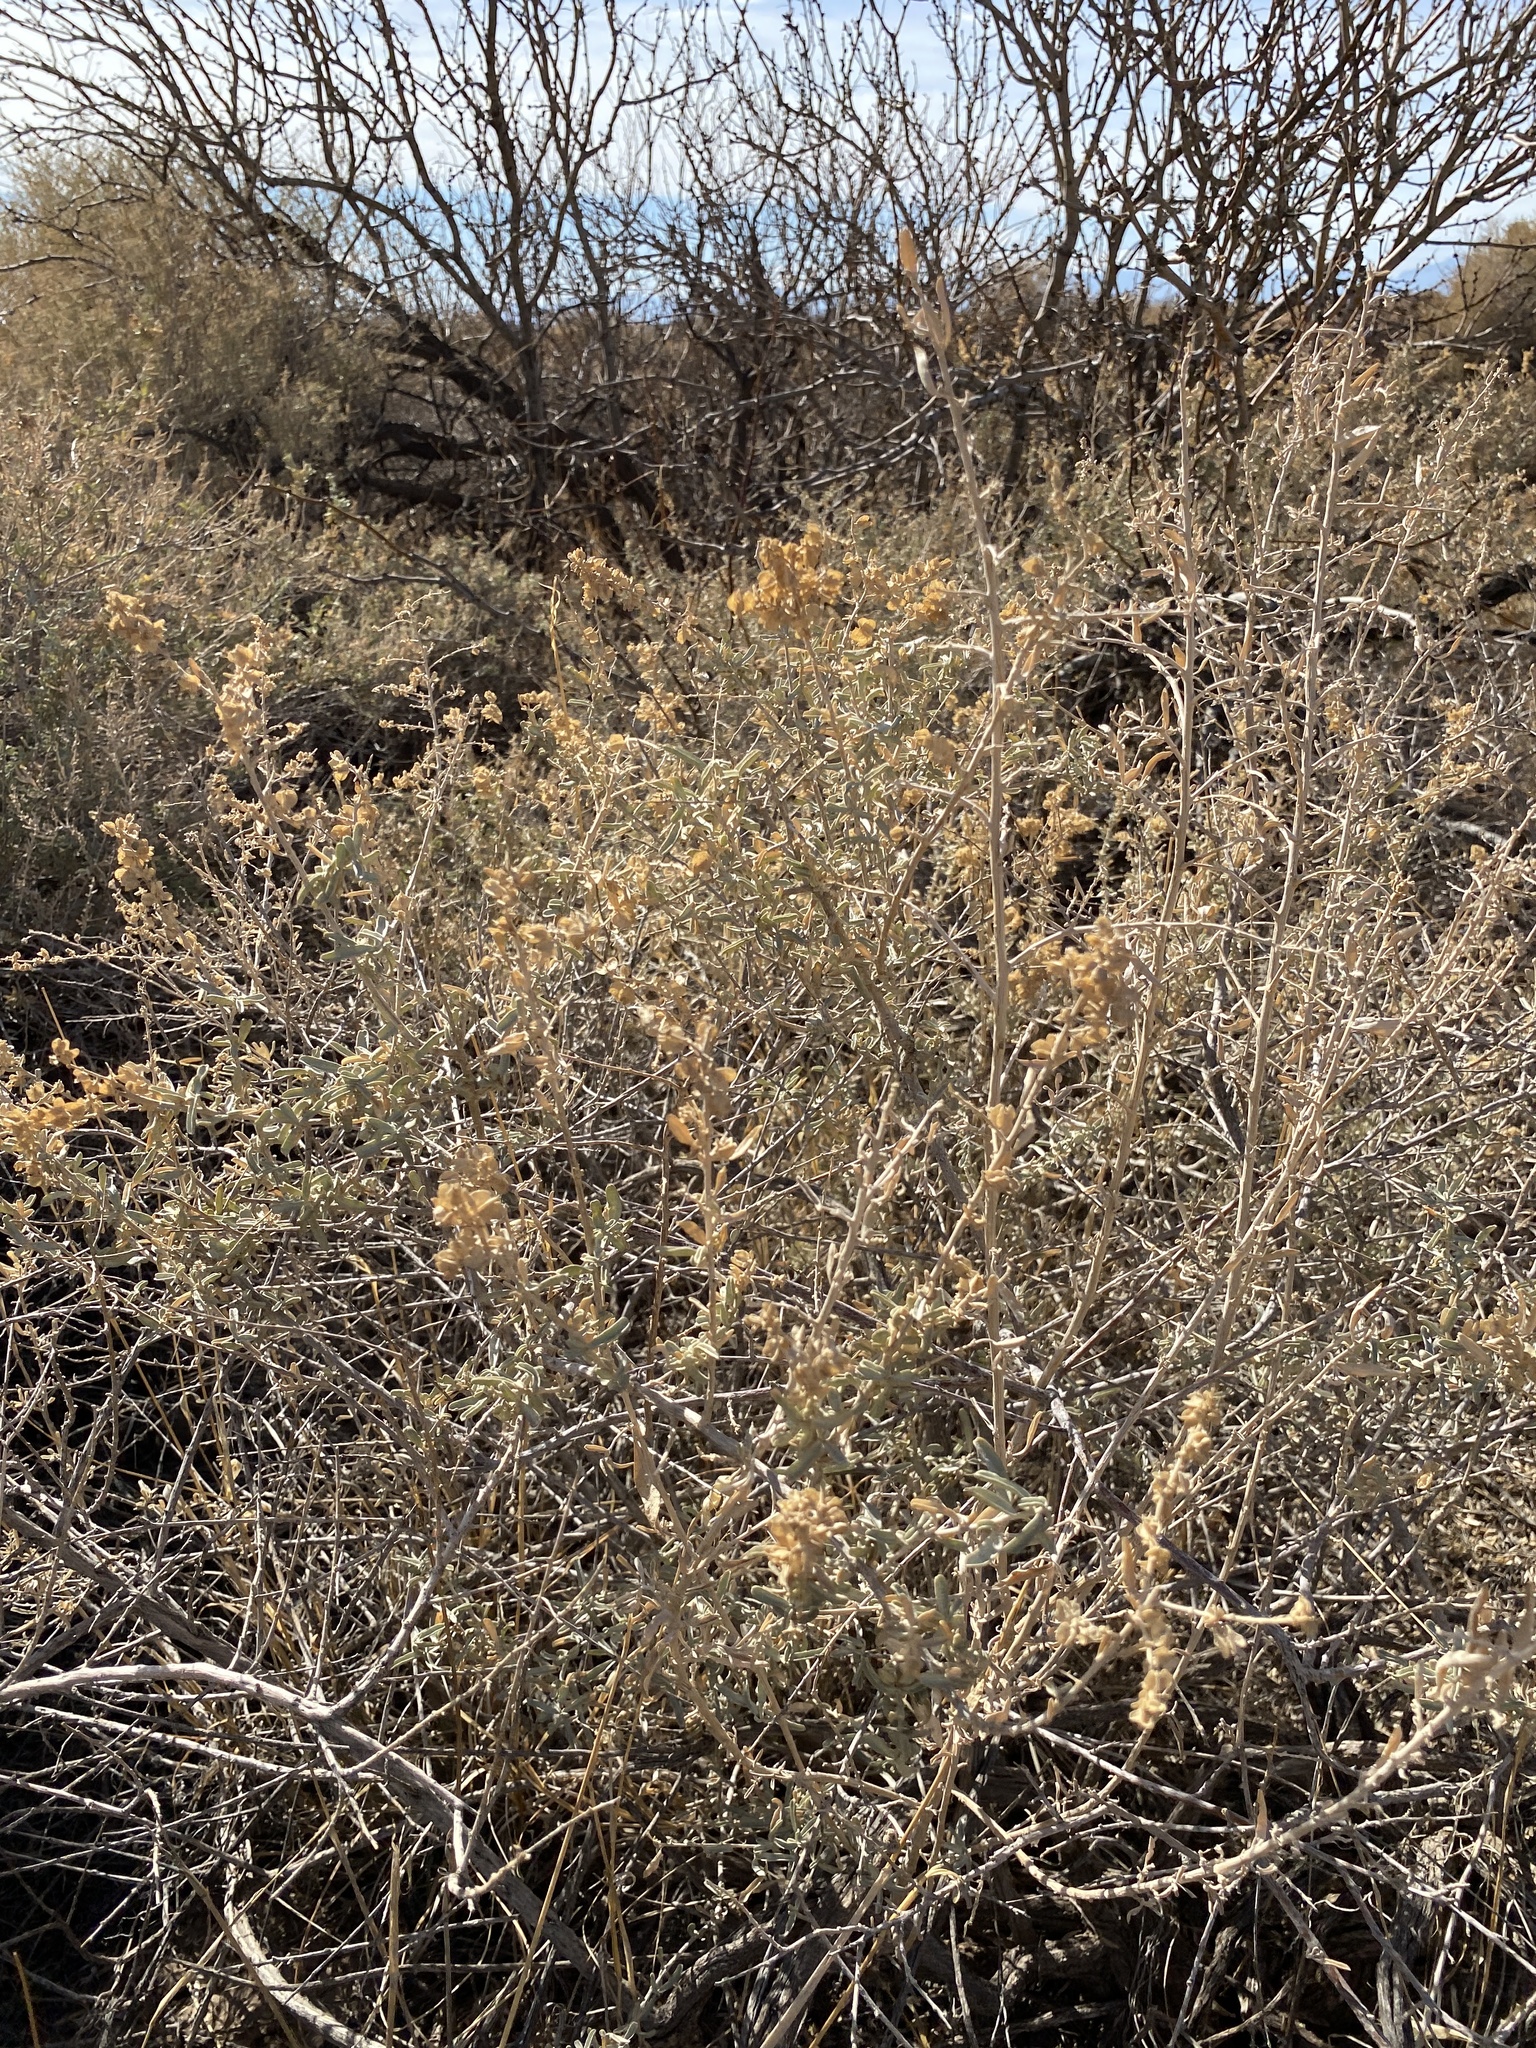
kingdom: Plantae
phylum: Tracheophyta
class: Magnoliopsida
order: Caryophyllales
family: Amaranthaceae
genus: Atriplex
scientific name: Atriplex canescens
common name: Four-wing saltbush
